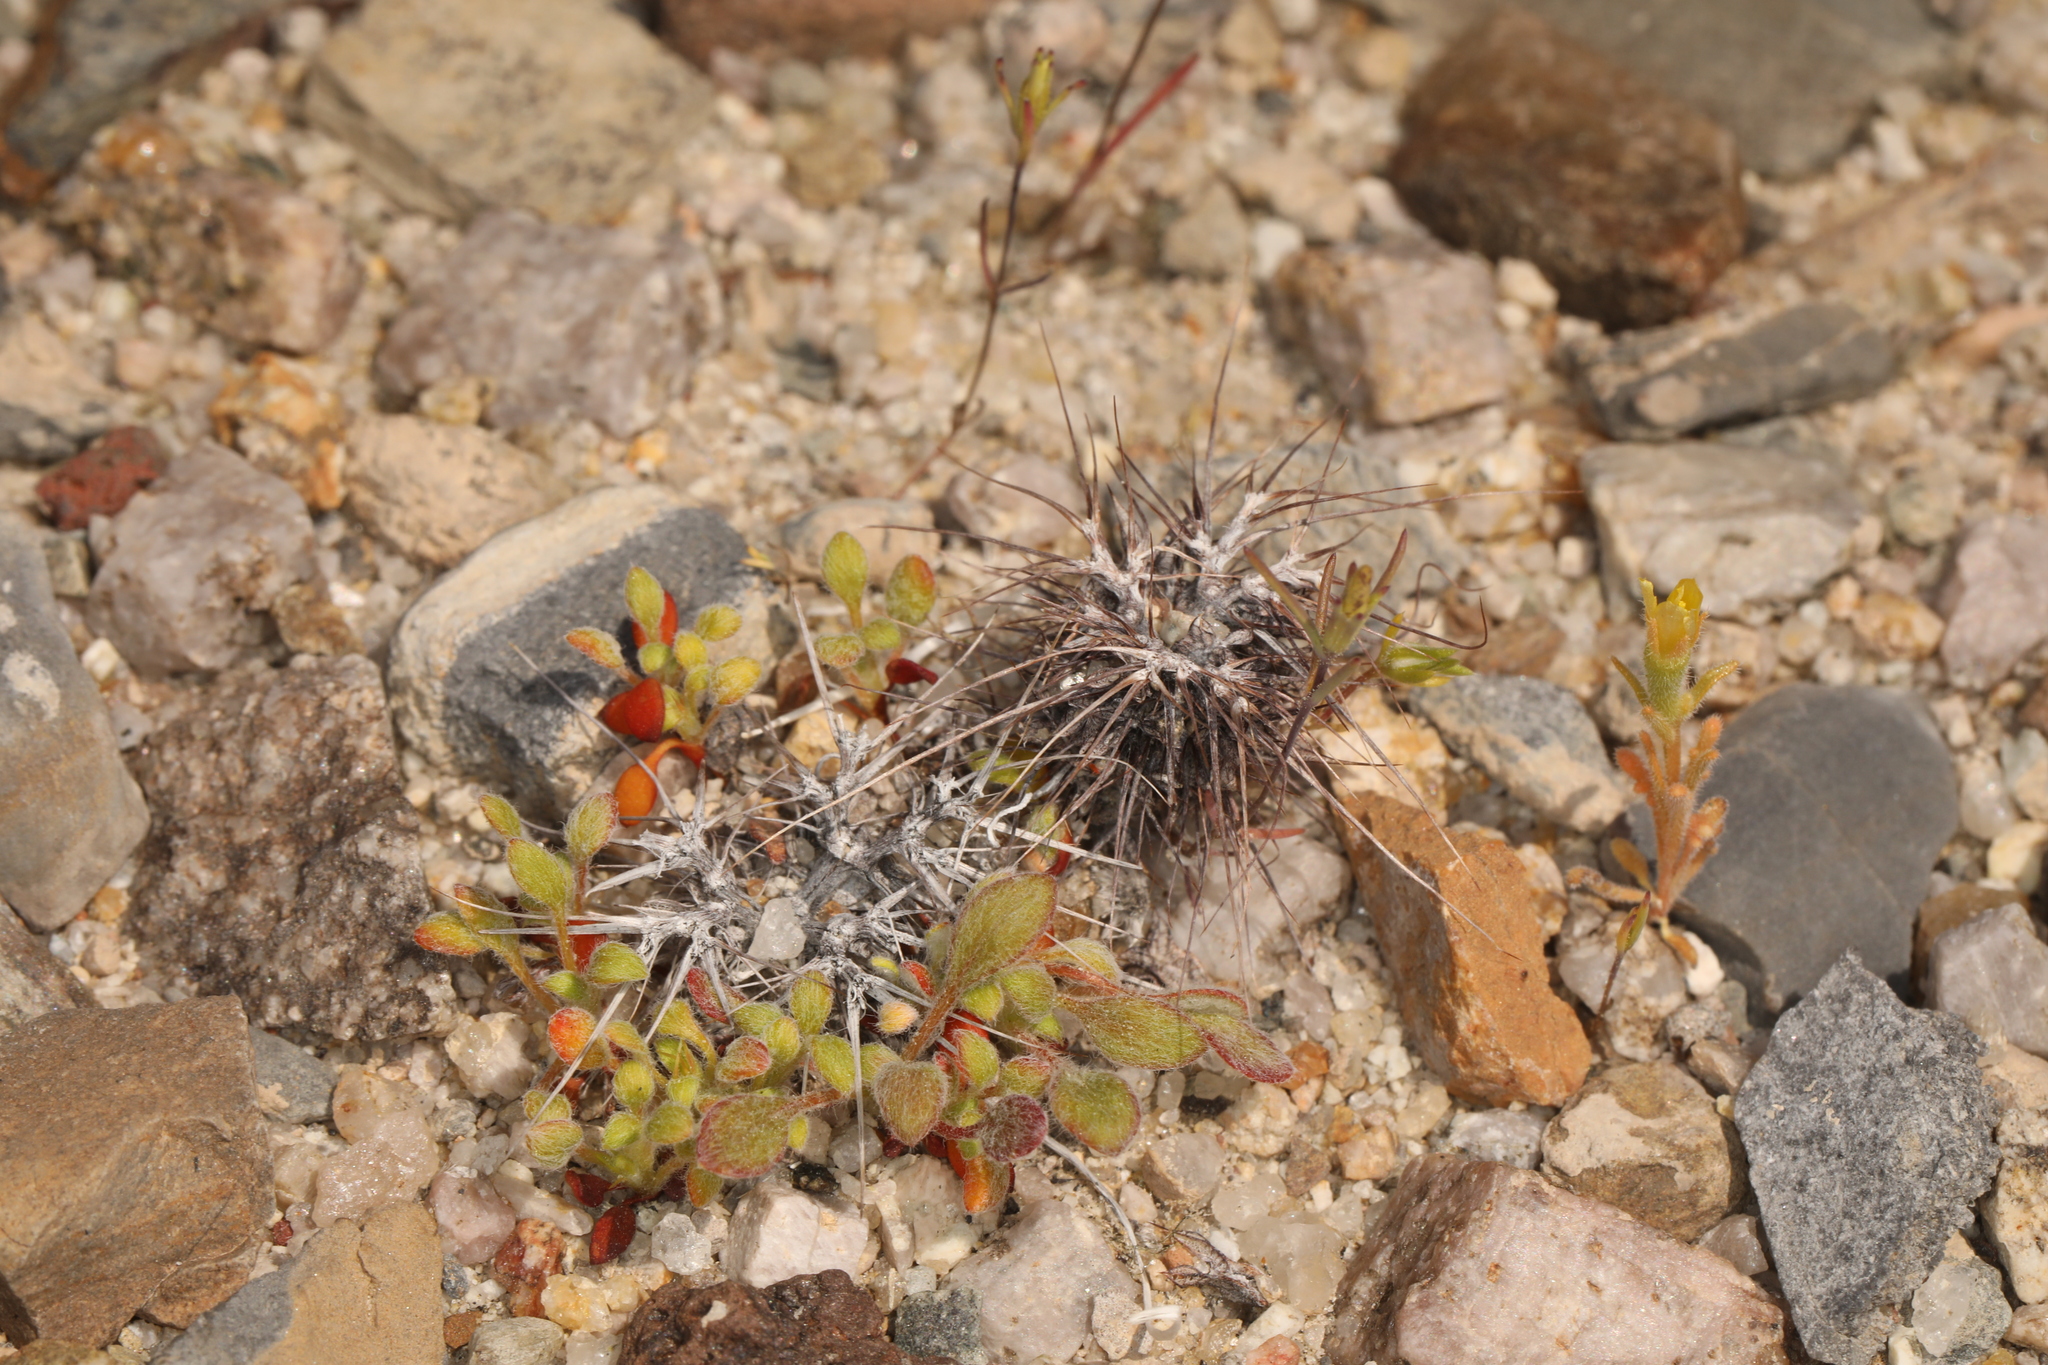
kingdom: Plantae
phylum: Tracheophyta
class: Magnoliopsida
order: Caryophyllales
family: Polygonaceae
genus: Chorizanthe
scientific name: Chorizanthe rigida
